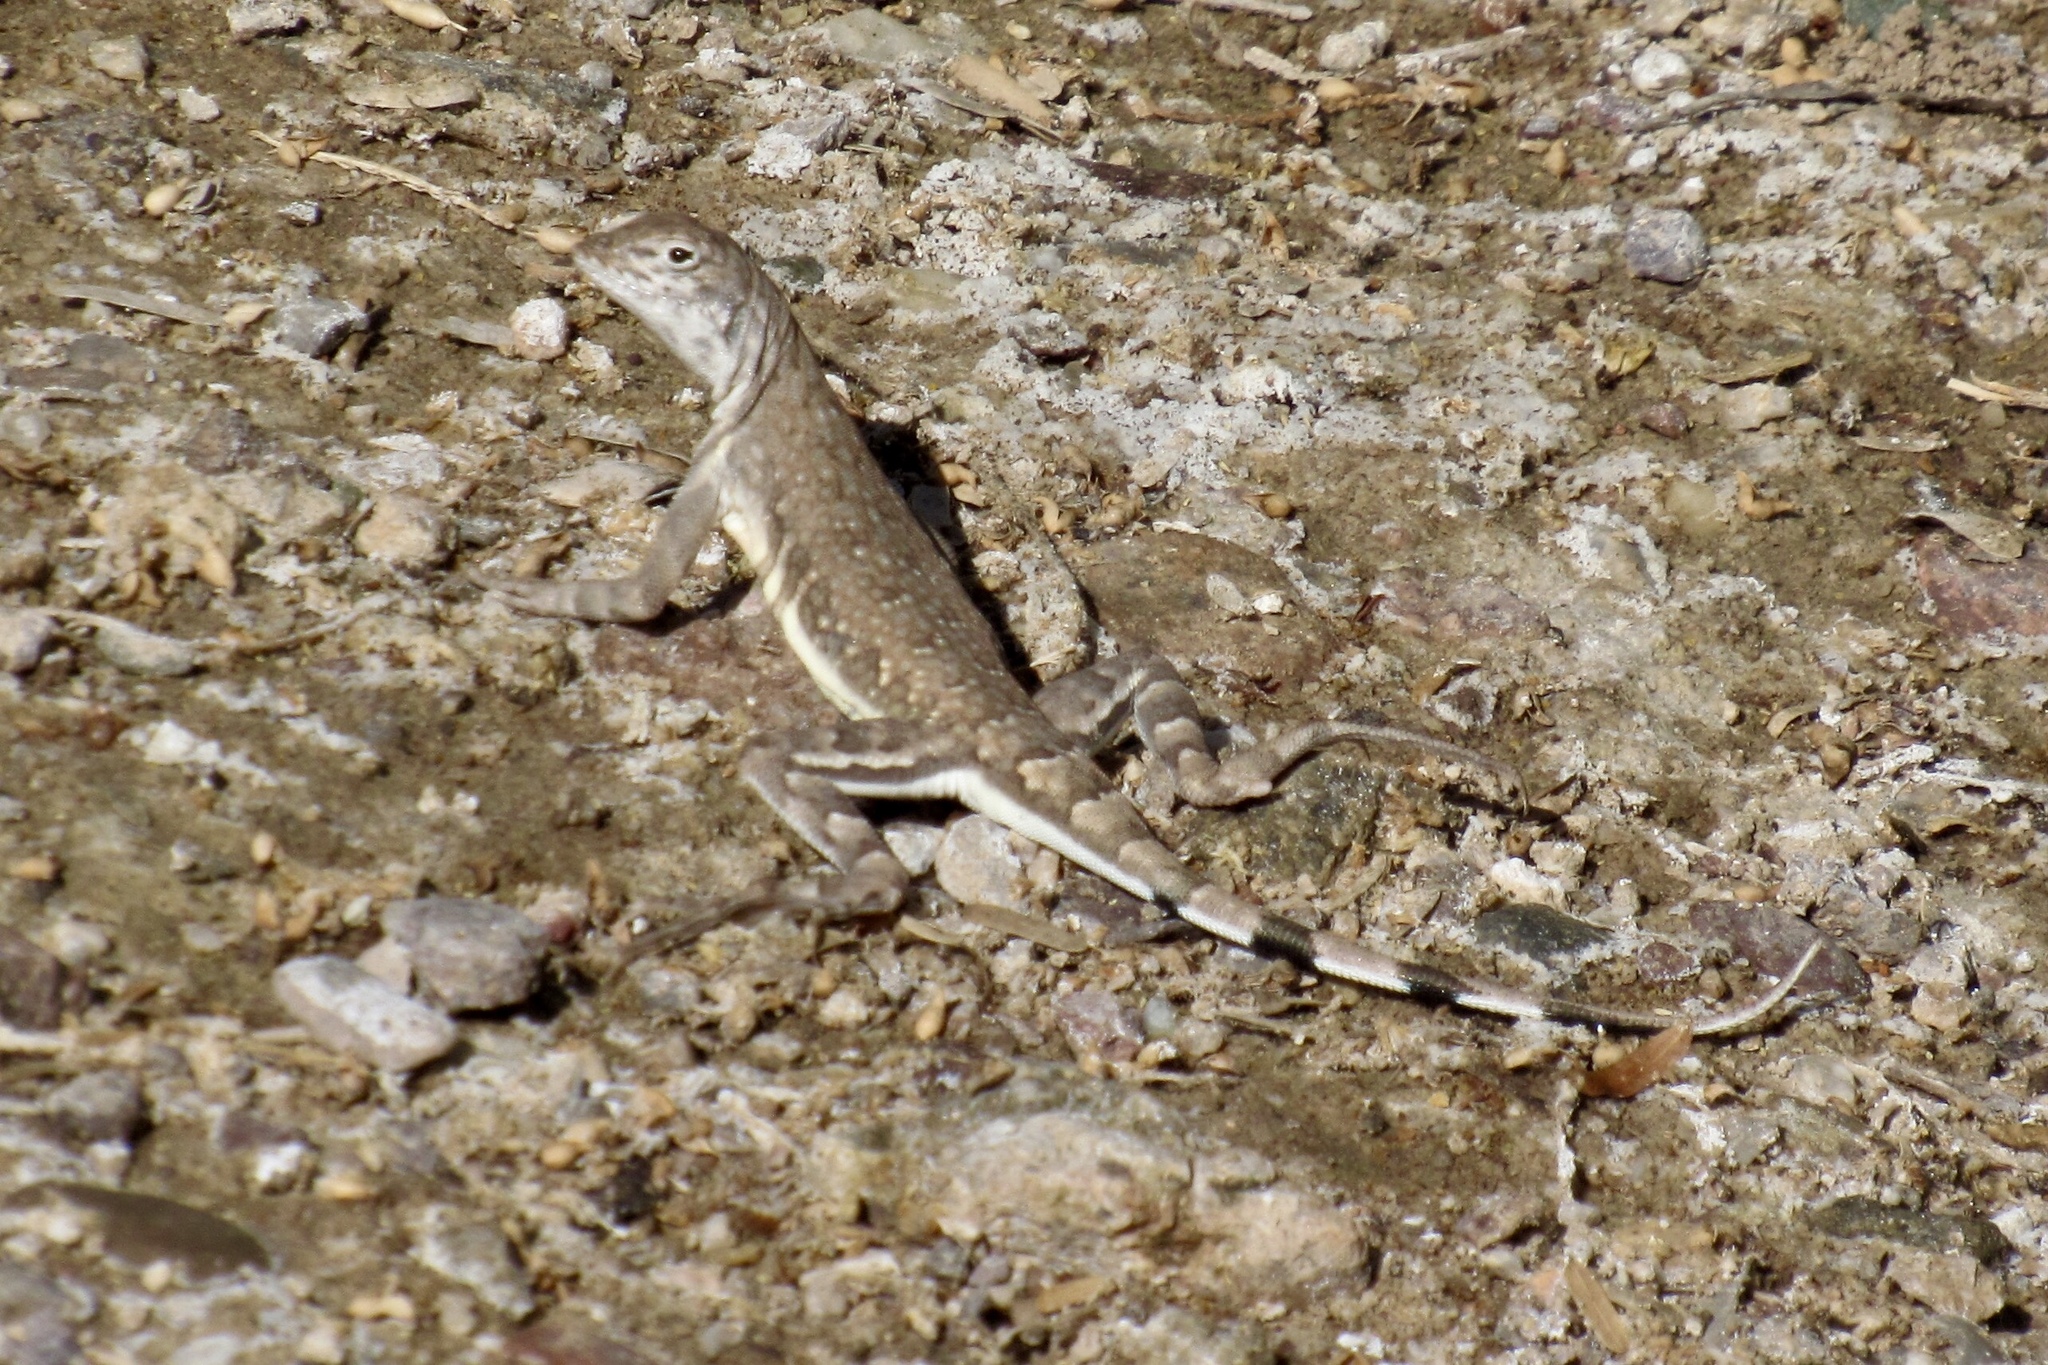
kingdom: Animalia
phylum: Chordata
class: Squamata
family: Phrynosomatidae
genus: Callisaurus
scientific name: Callisaurus draconoides
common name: Zebra-tailed lizard
